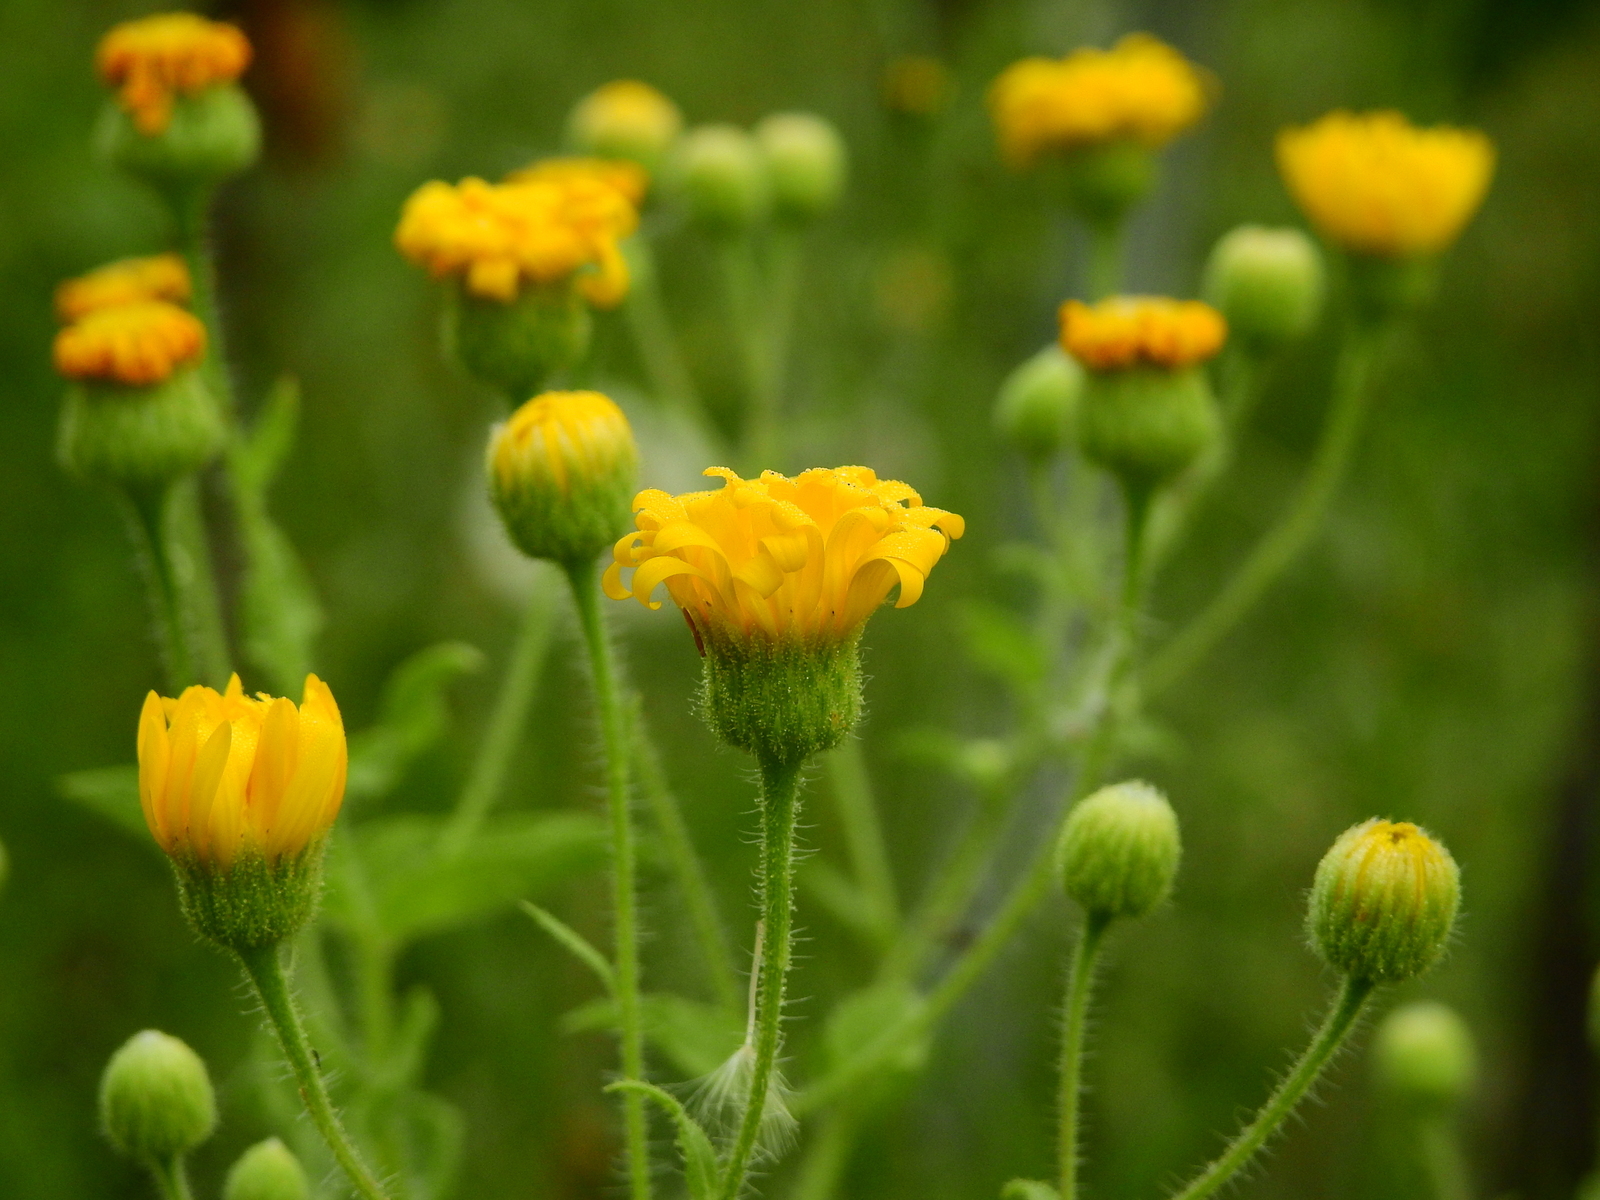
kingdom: Plantae
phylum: Tracheophyta
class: Magnoliopsida
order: Asterales
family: Asteraceae
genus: Heterotheca
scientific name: Heterotheca subaxillaris
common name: Camphorweed
